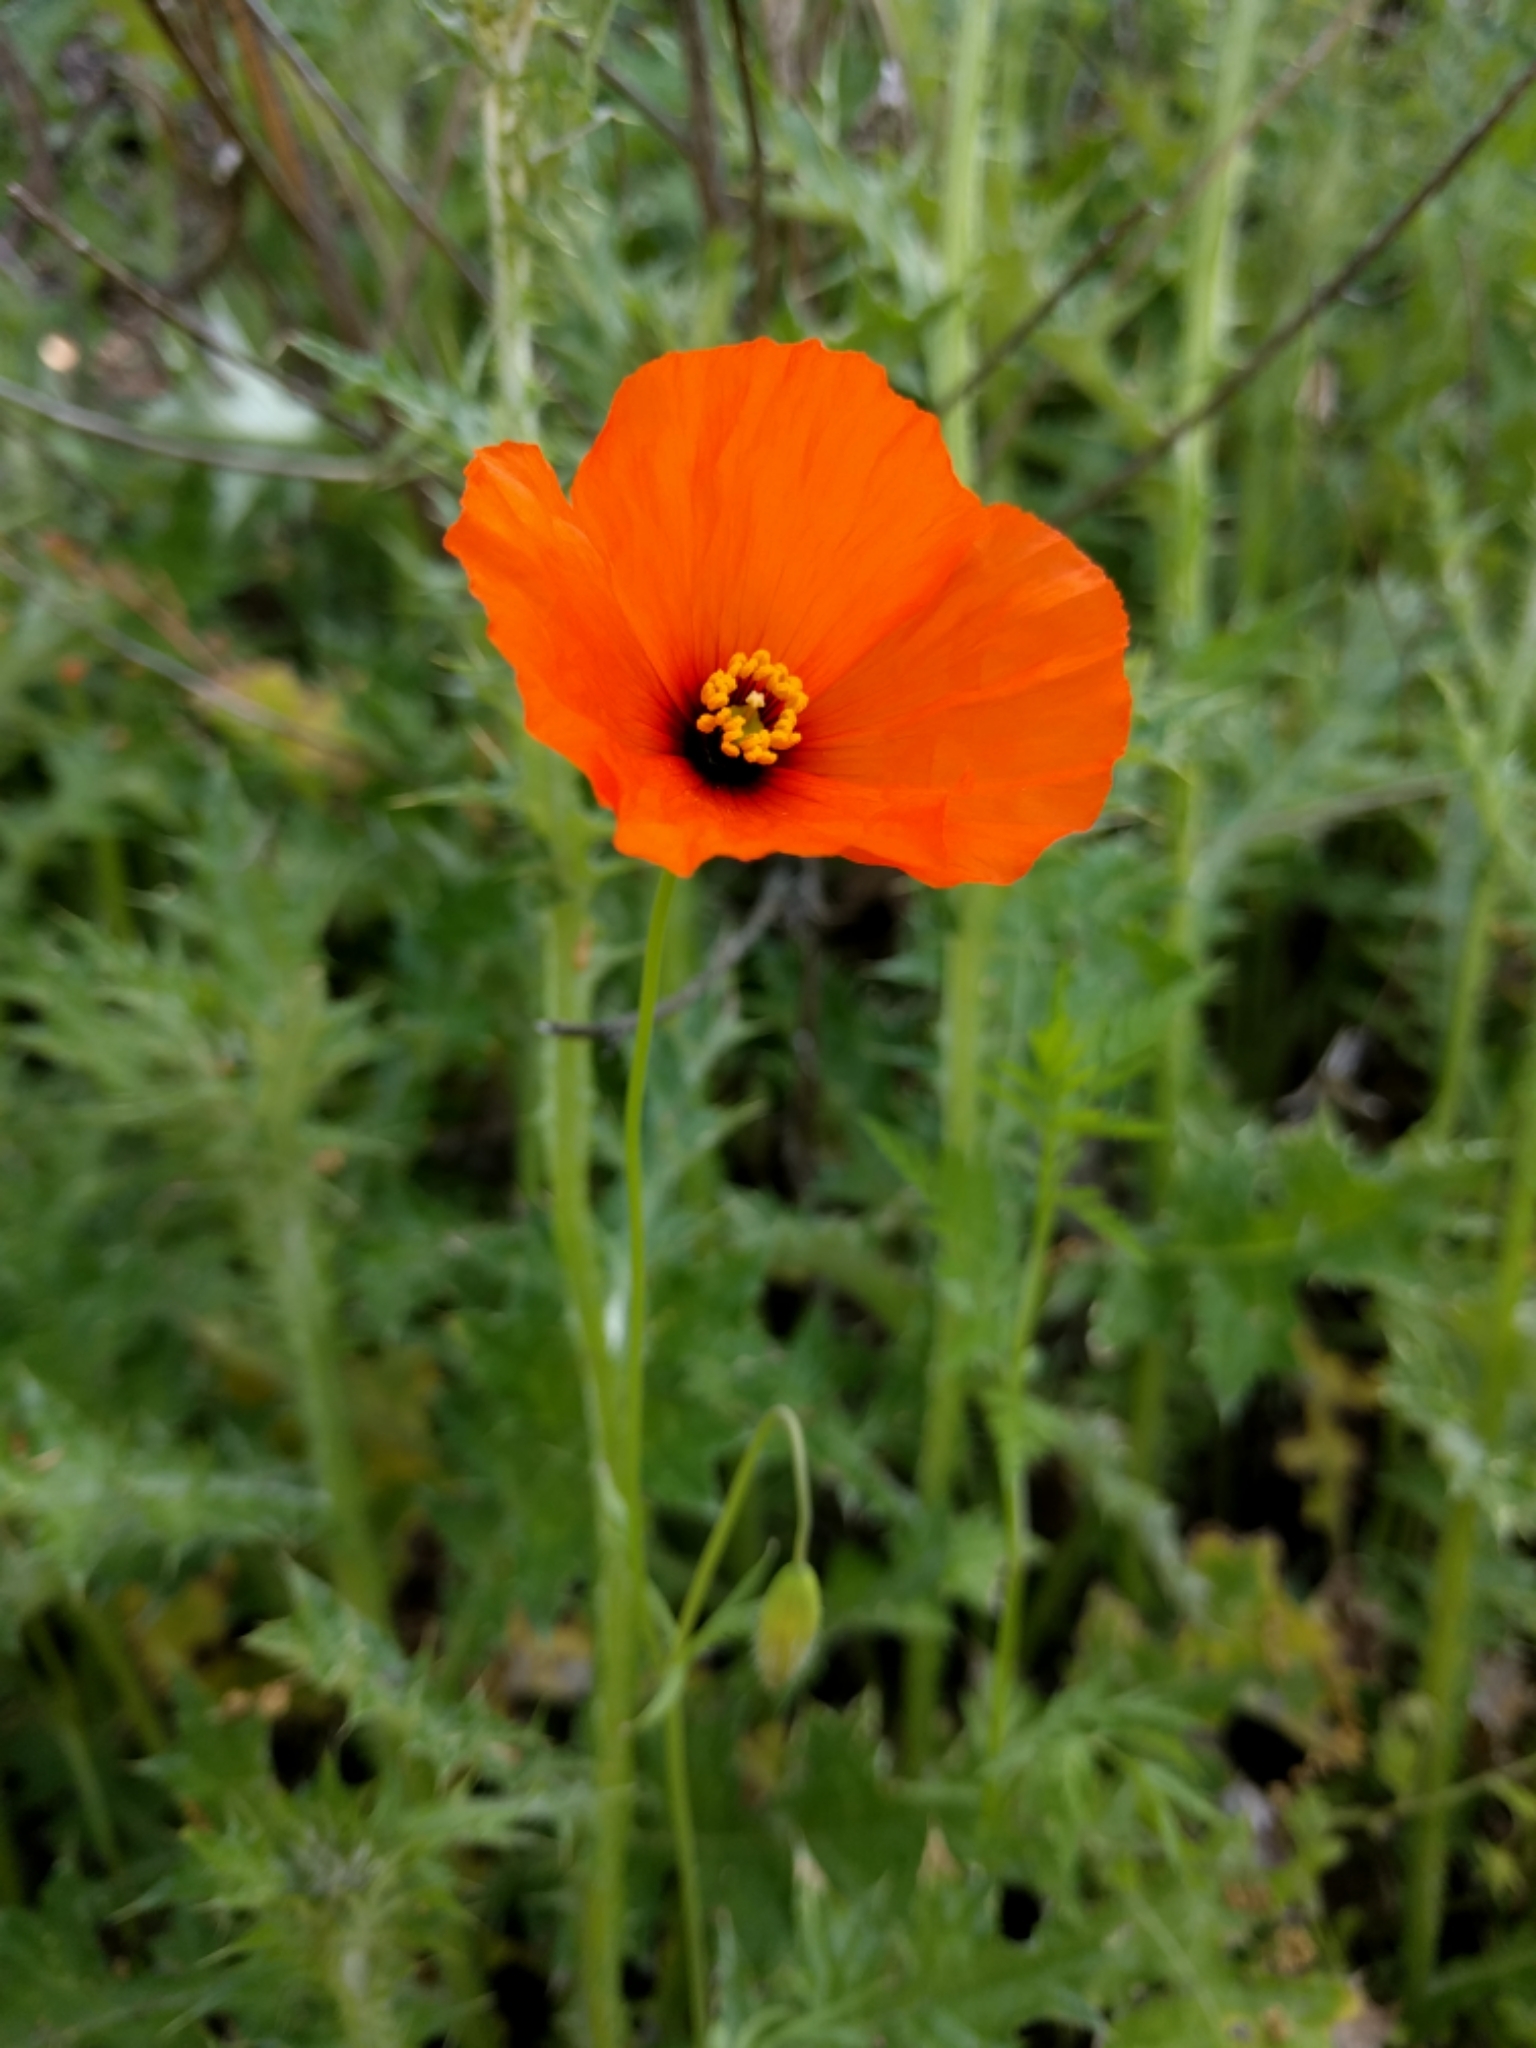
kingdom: Plantae
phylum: Tracheophyta
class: Magnoliopsida
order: Ranunculales
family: Papaveraceae
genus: Stylomecon
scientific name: Stylomecon heterophylla
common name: Flaming-poppy
